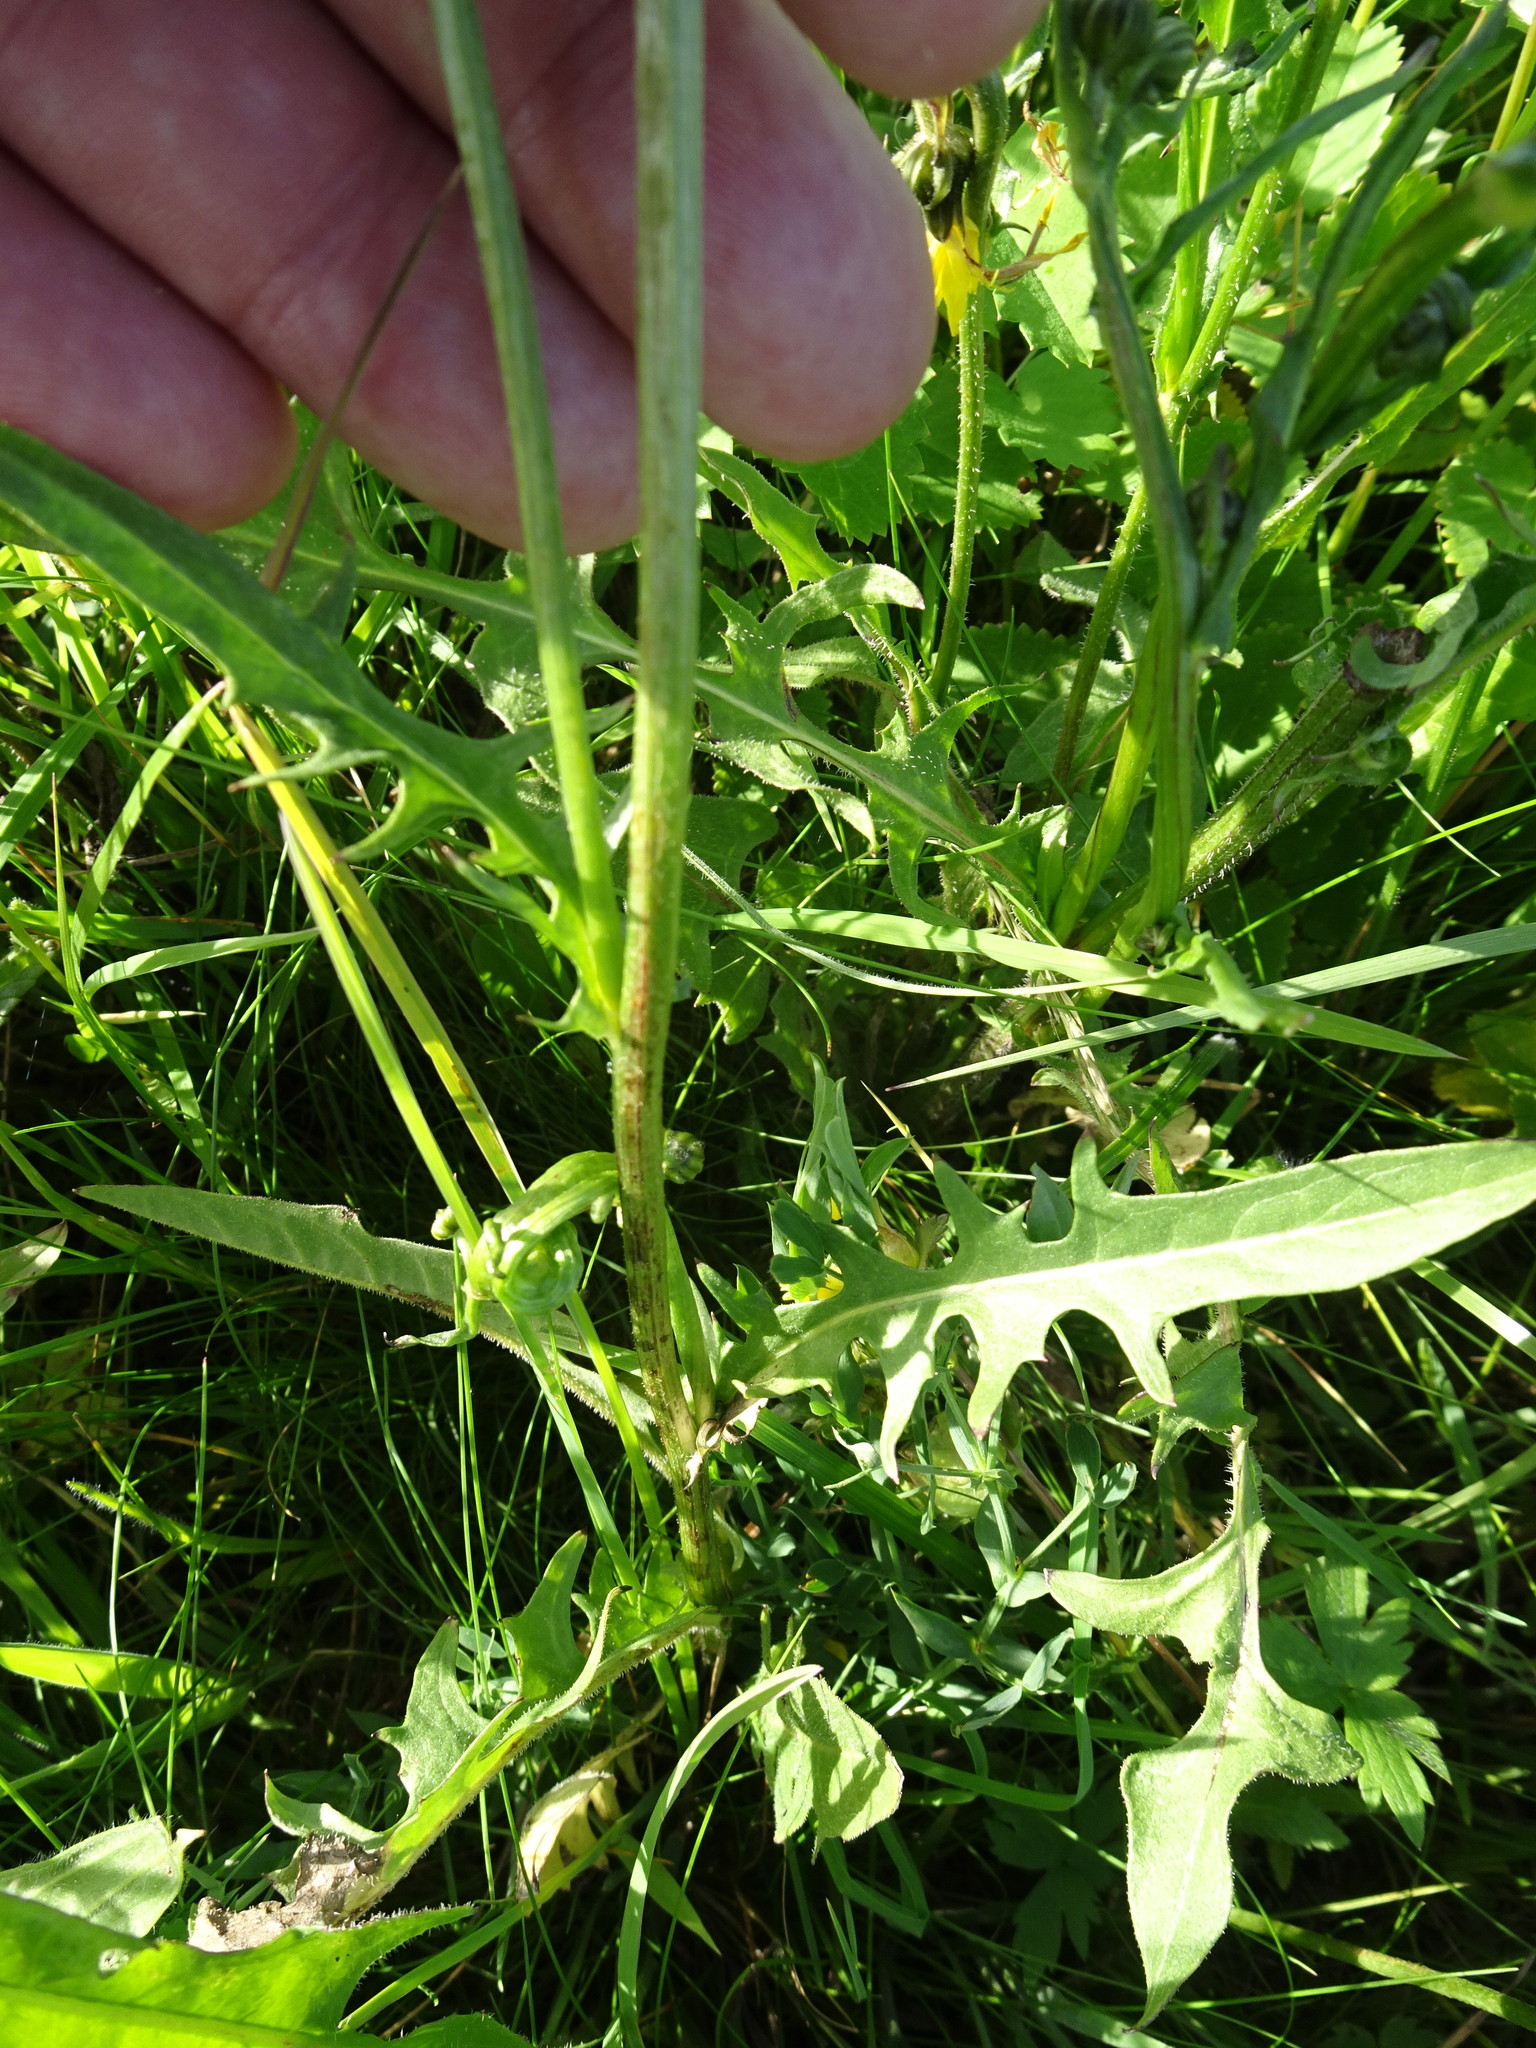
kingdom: Plantae
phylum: Tracheophyta
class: Magnoliopsida
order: Asterales
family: Asteraceae
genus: Crepis
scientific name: Crepis biennis
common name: Rough hawk's-beard
